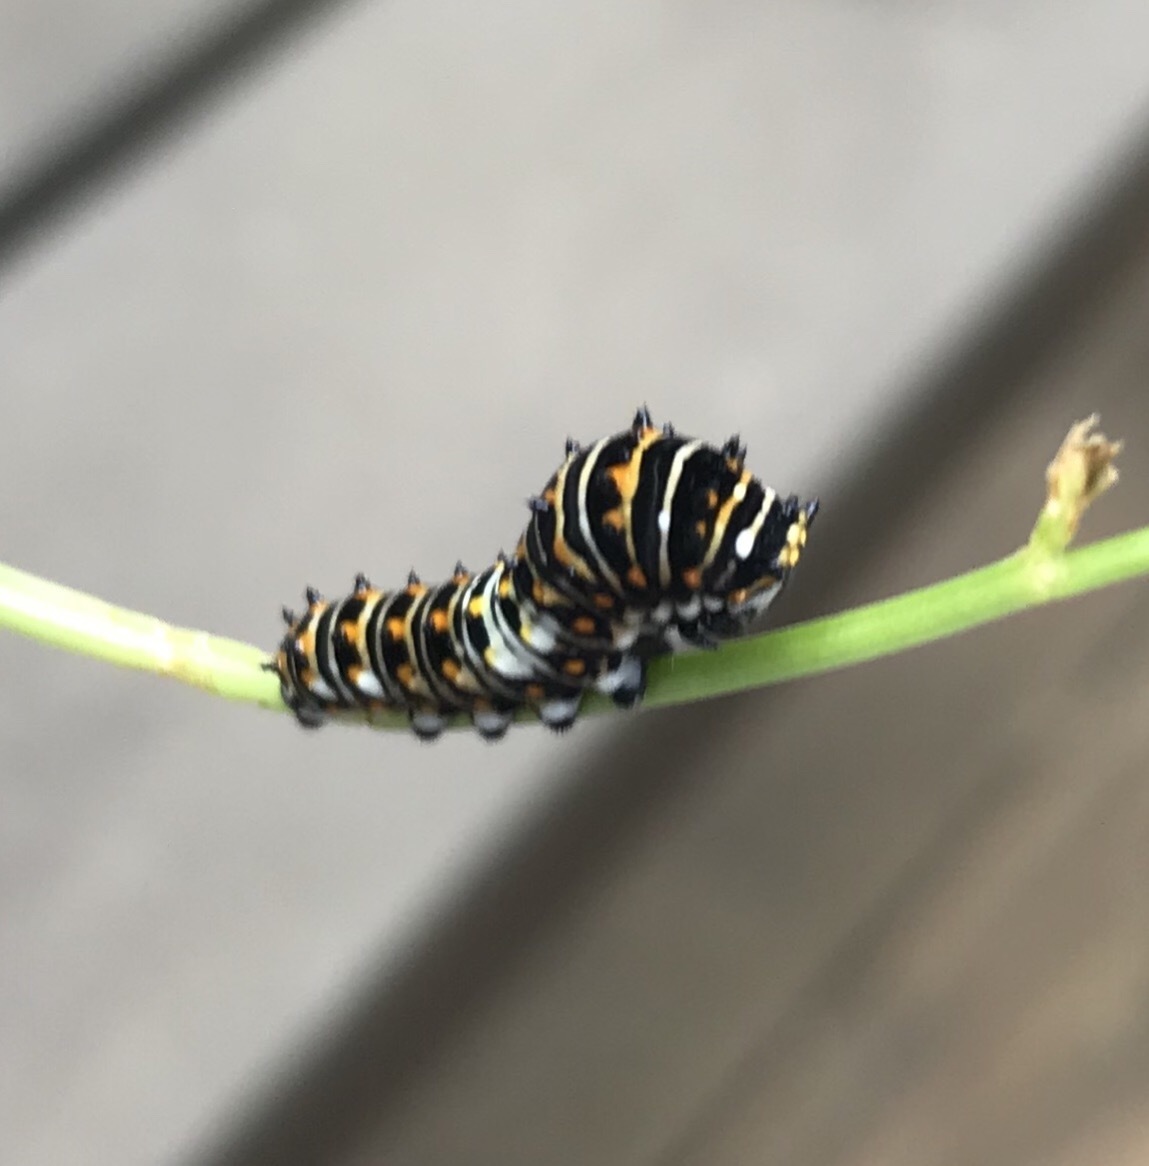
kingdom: Animalia
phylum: Arthropoda
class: Insecta
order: Lepidoptera
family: Papilionidae
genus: Papilio
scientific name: Papilio polyxenes
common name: Black swallowtail
